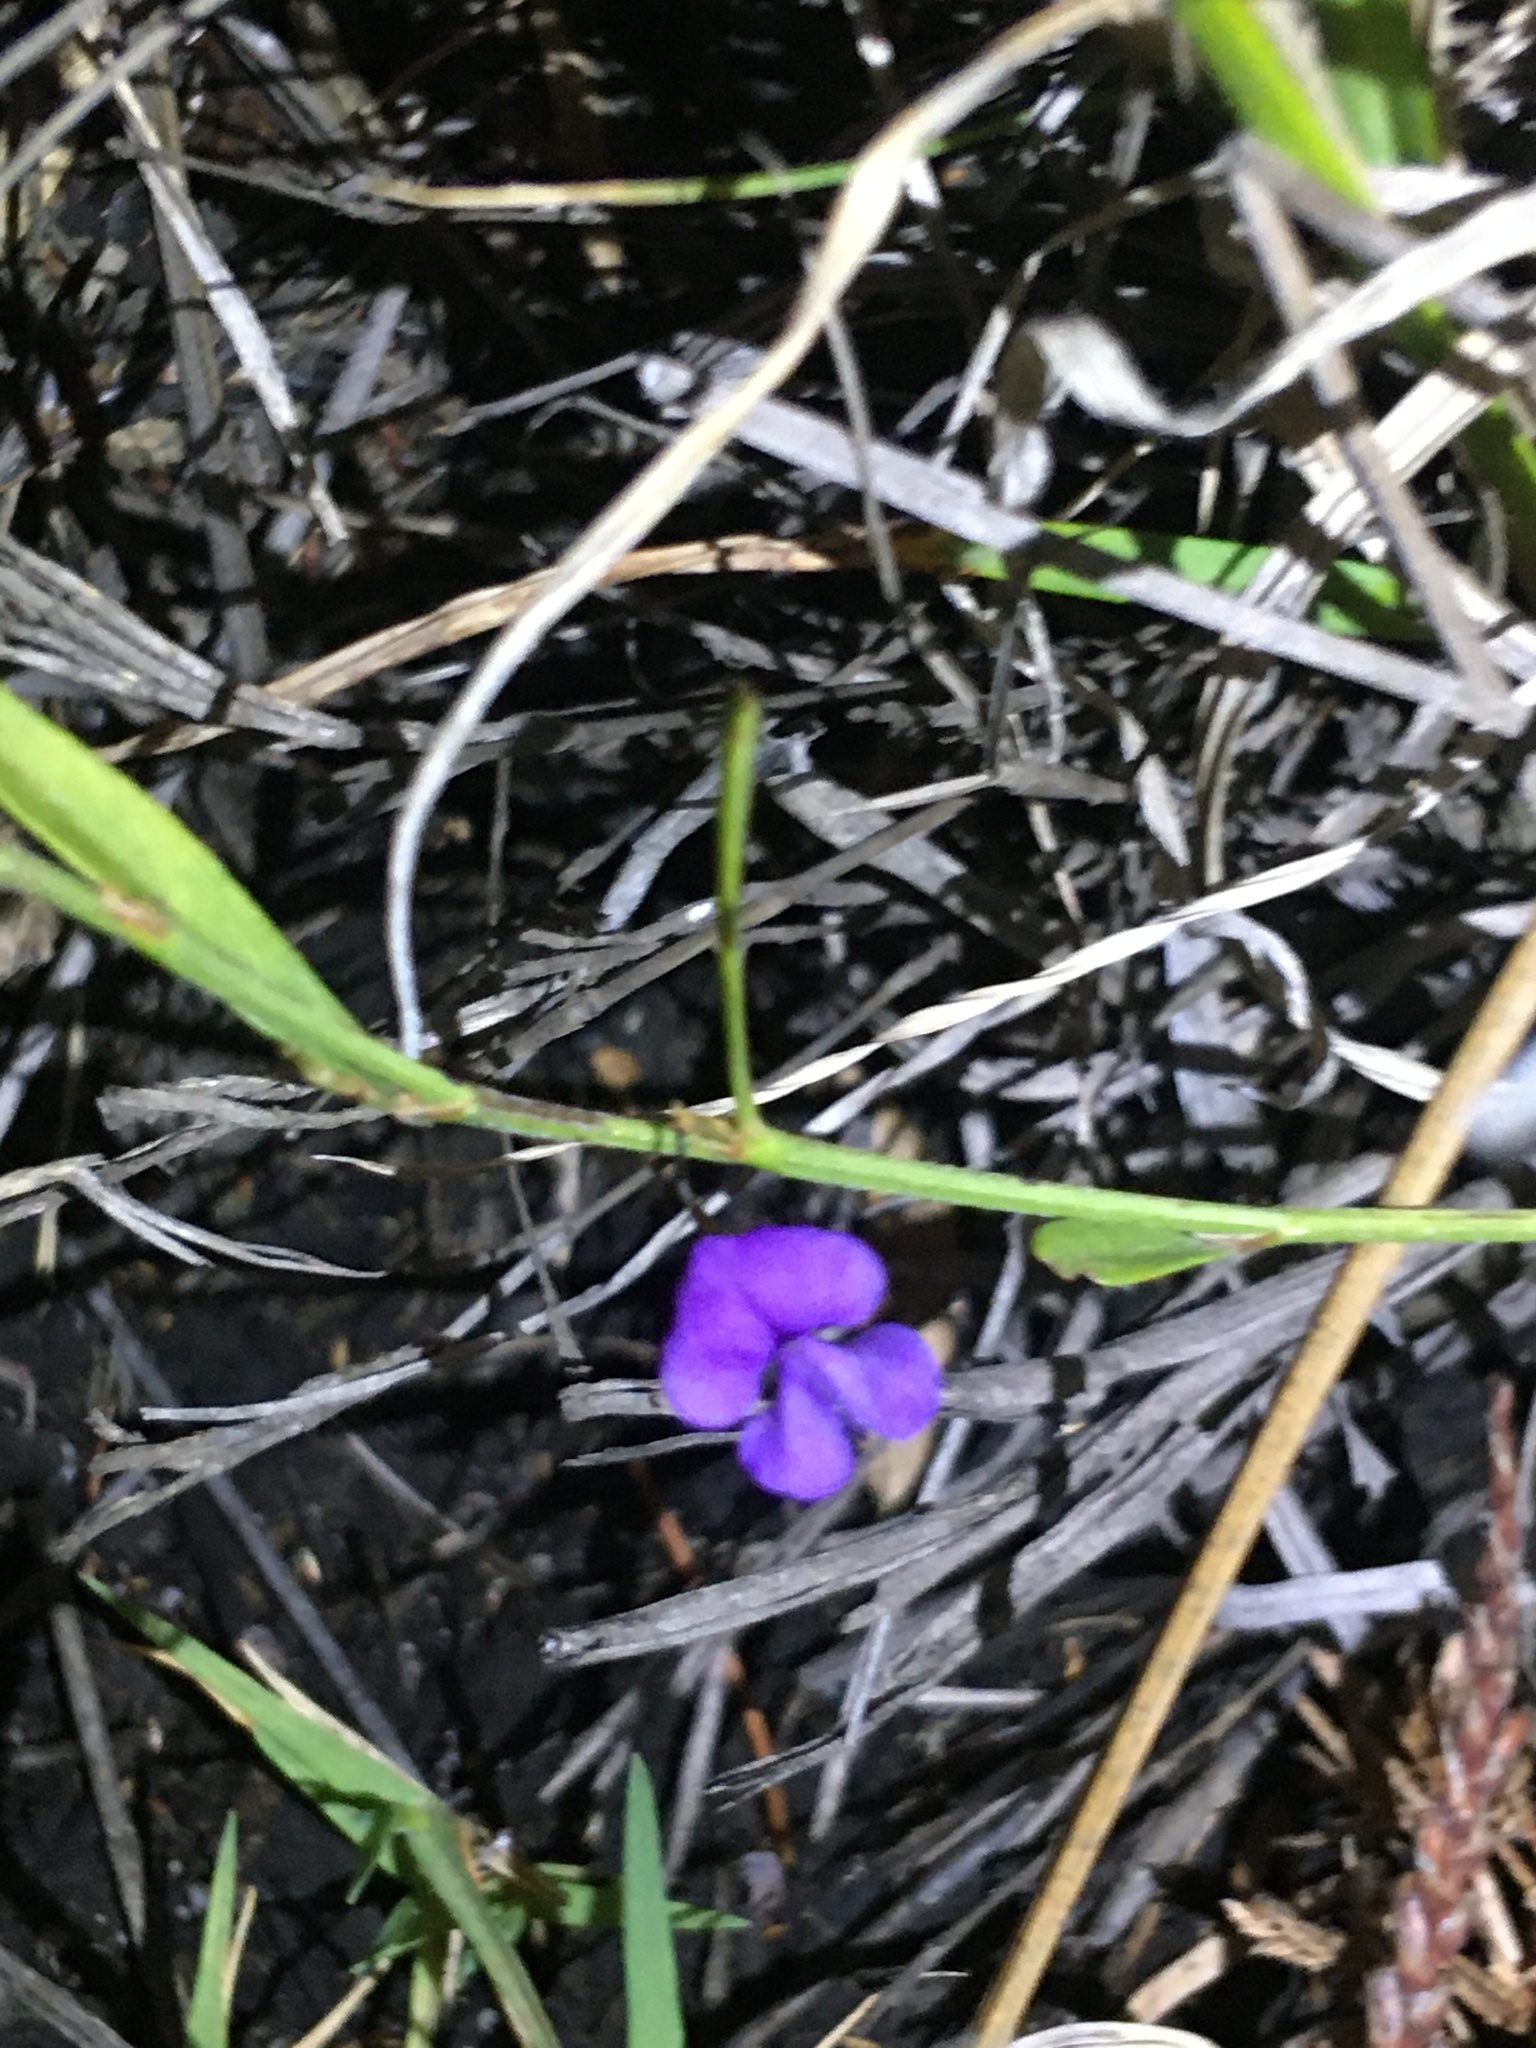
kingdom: Plantae
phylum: Tracheophyta
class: Magnoliopsida
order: Fabales
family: Fabaceae
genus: Psoralea
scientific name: Psoralea laxa
